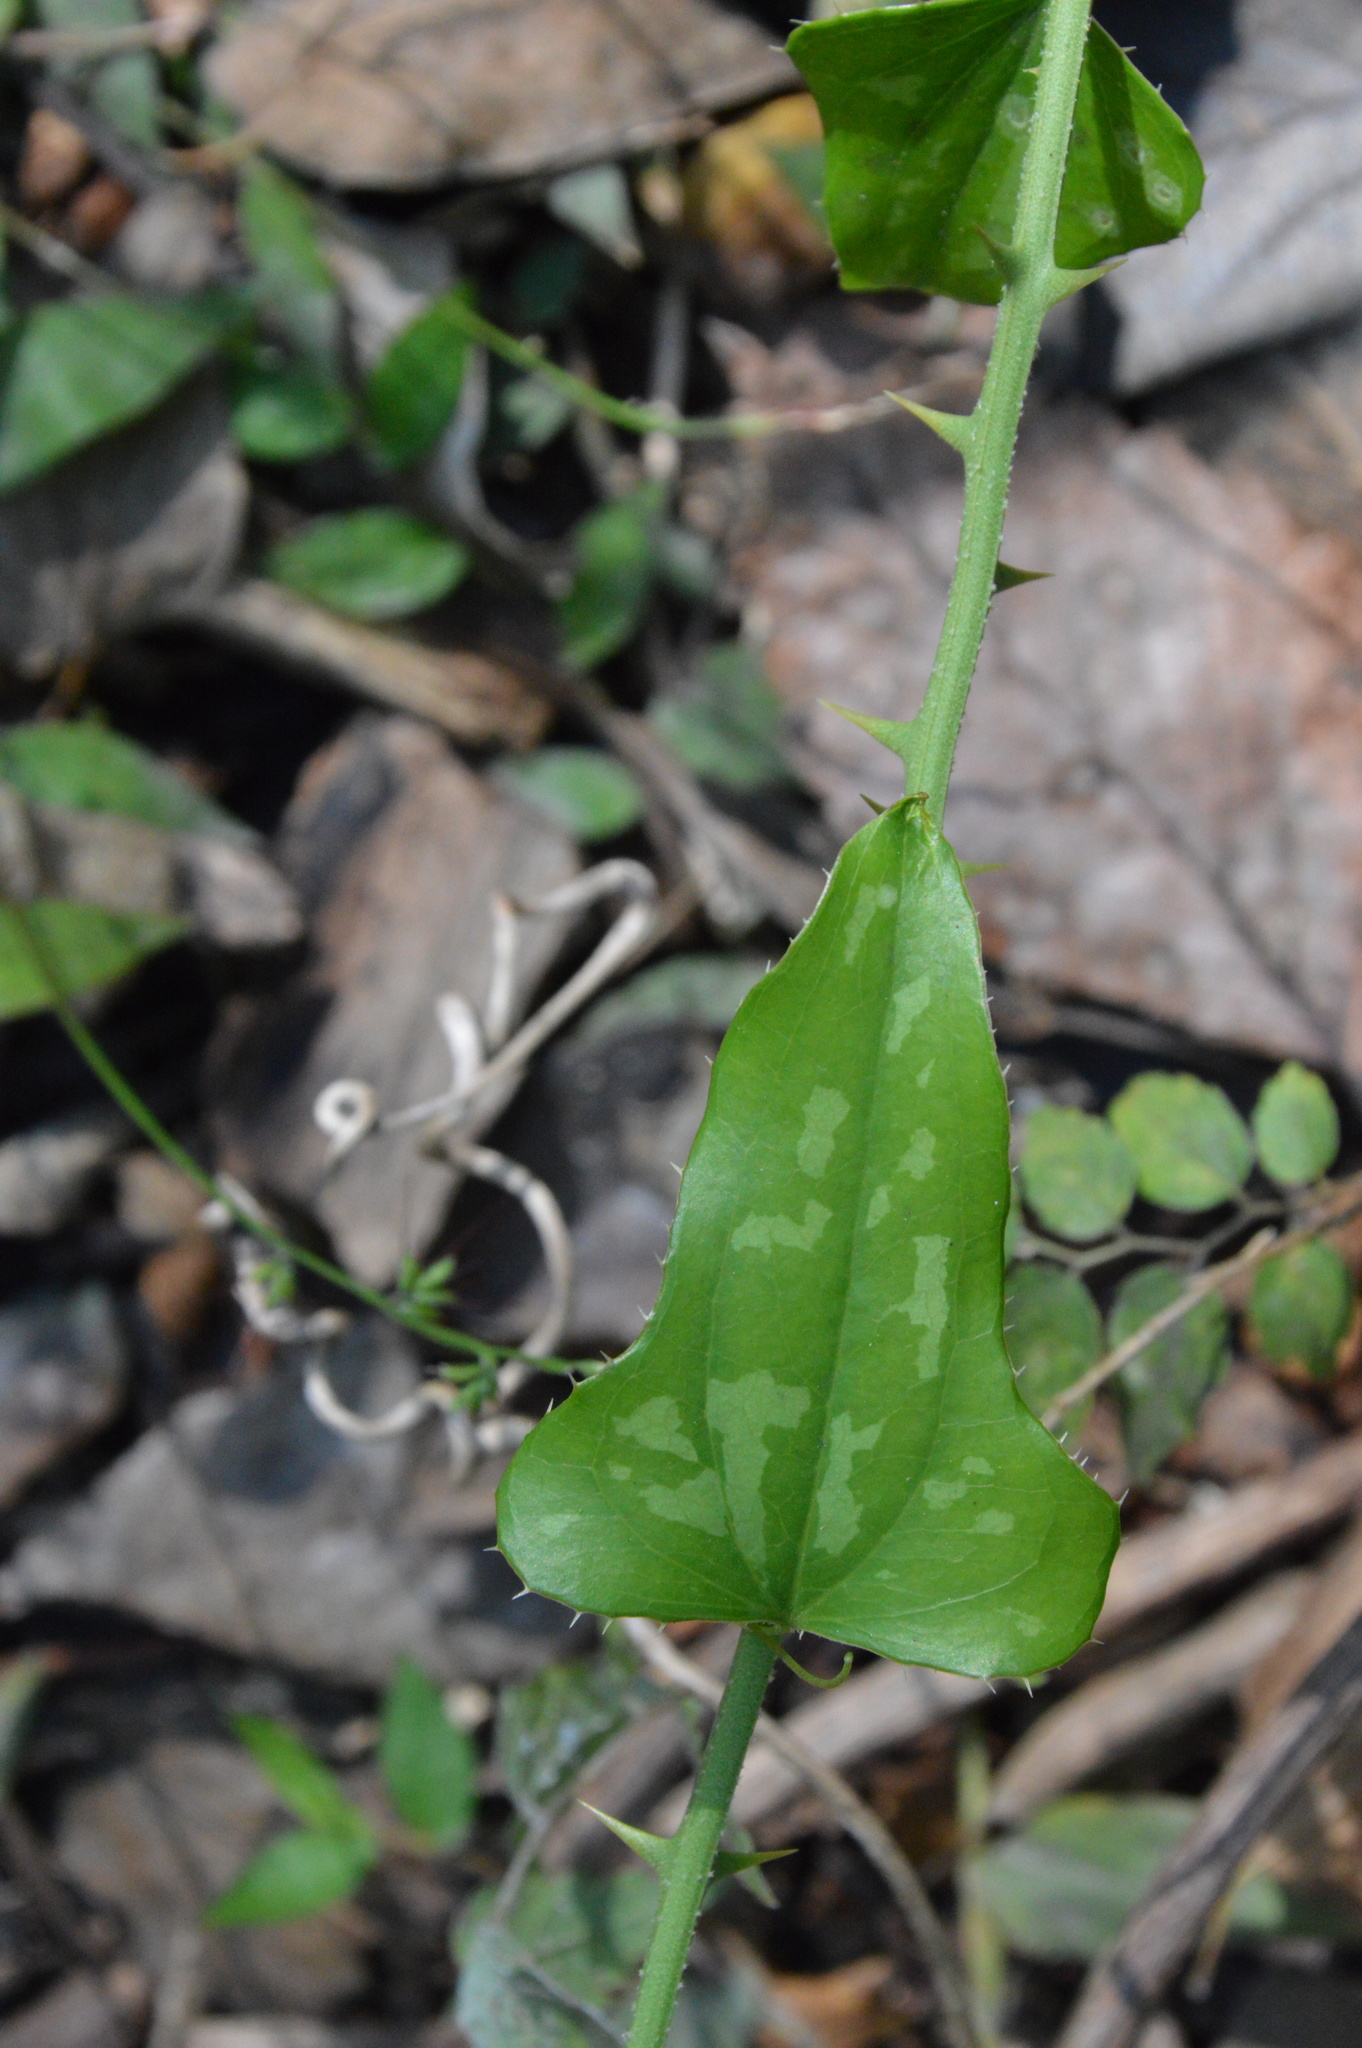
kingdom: Plantae
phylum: Tracheophyta
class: Liliopsida
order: Liliales
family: Smilacaceae
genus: Smilax
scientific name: Smilax bona-nox
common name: Catbrier
